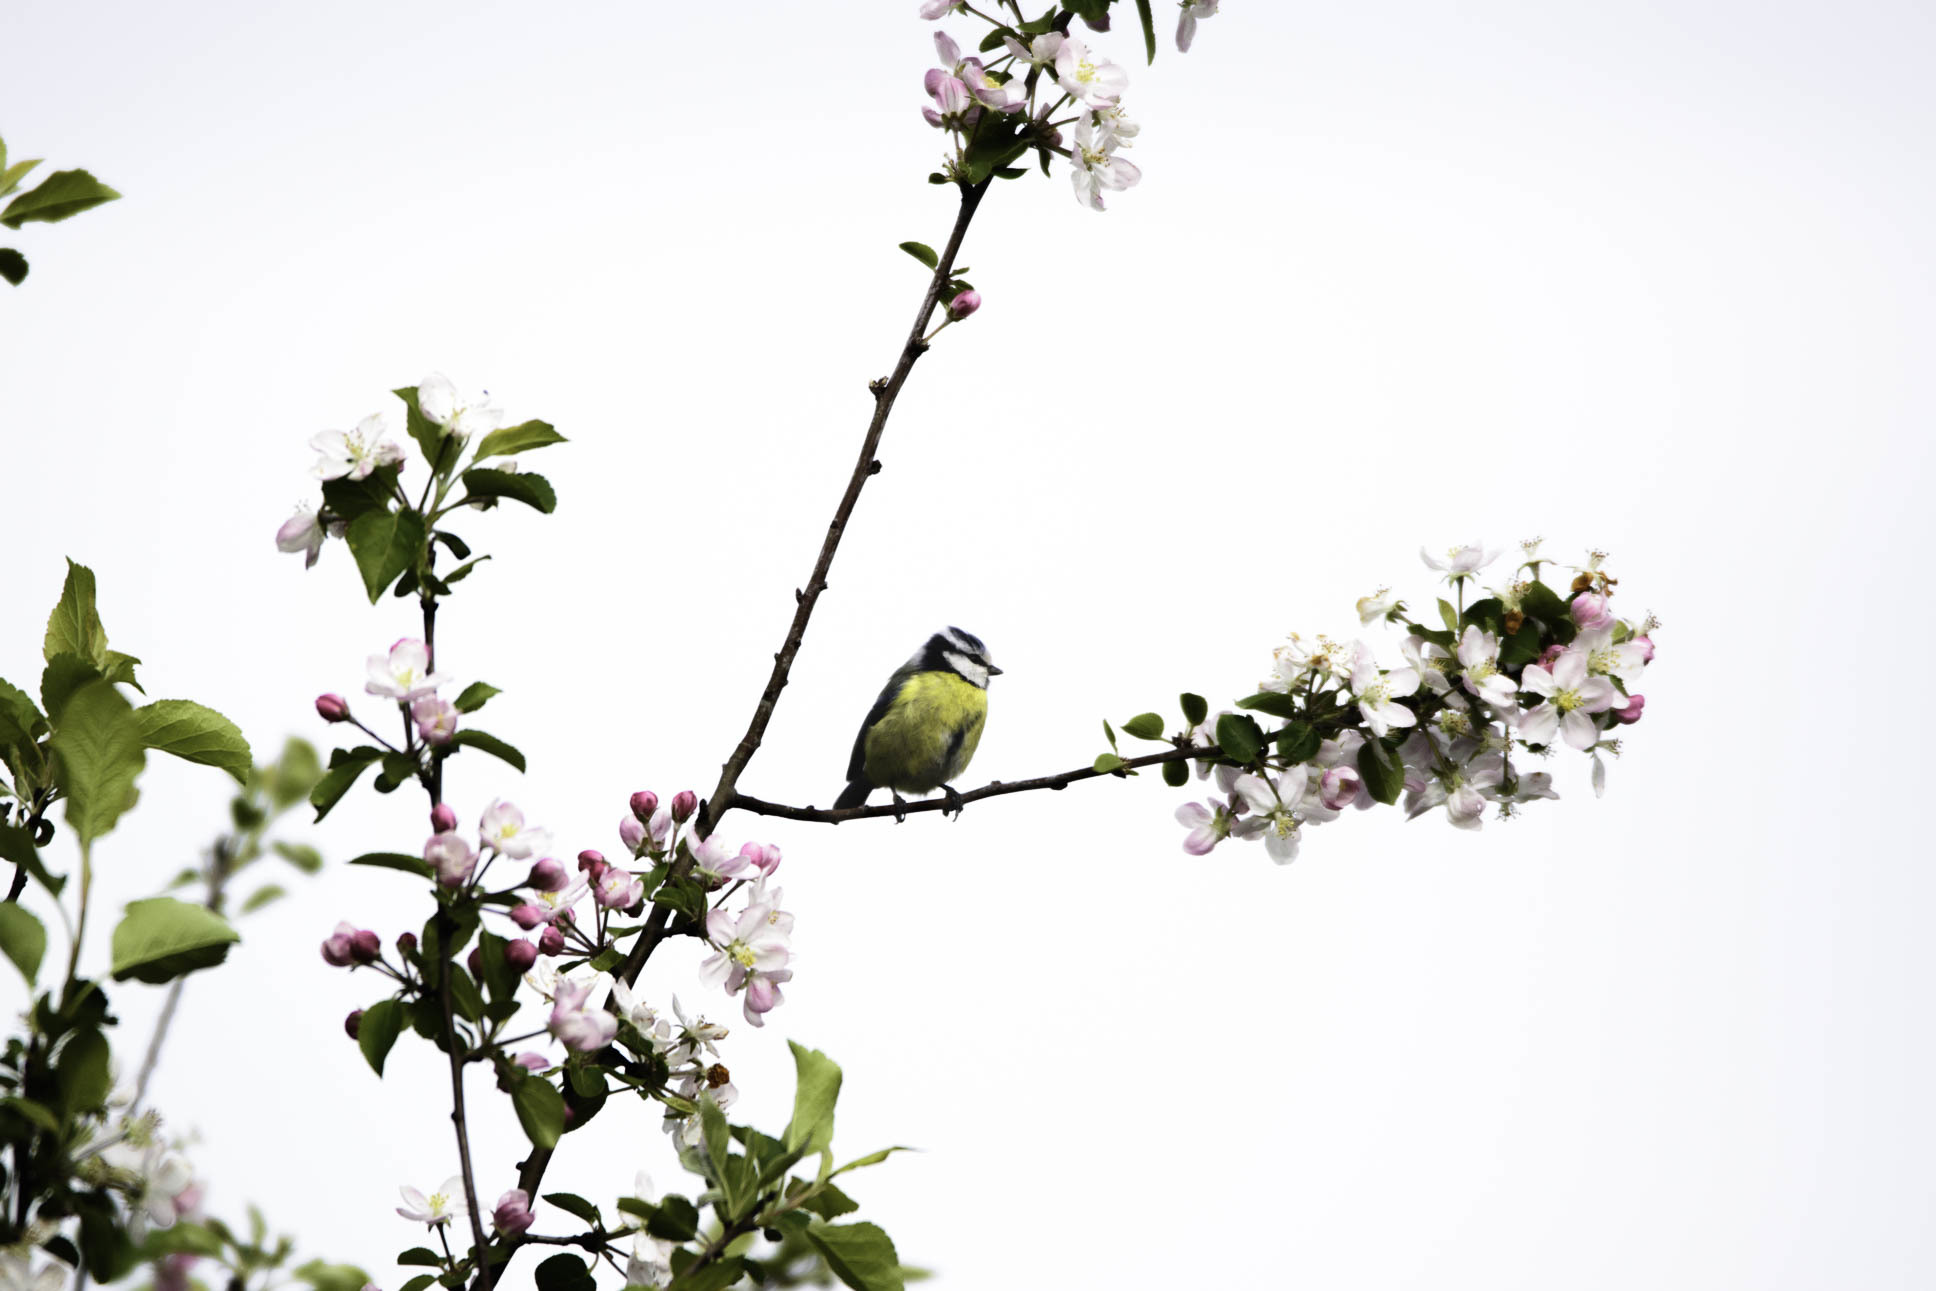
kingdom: Animalia
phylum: Chordata
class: Aves
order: Passeriformes
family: Paridae
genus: Cyanistes
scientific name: Cyanistes caeruleus
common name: Eurasian blue tit
